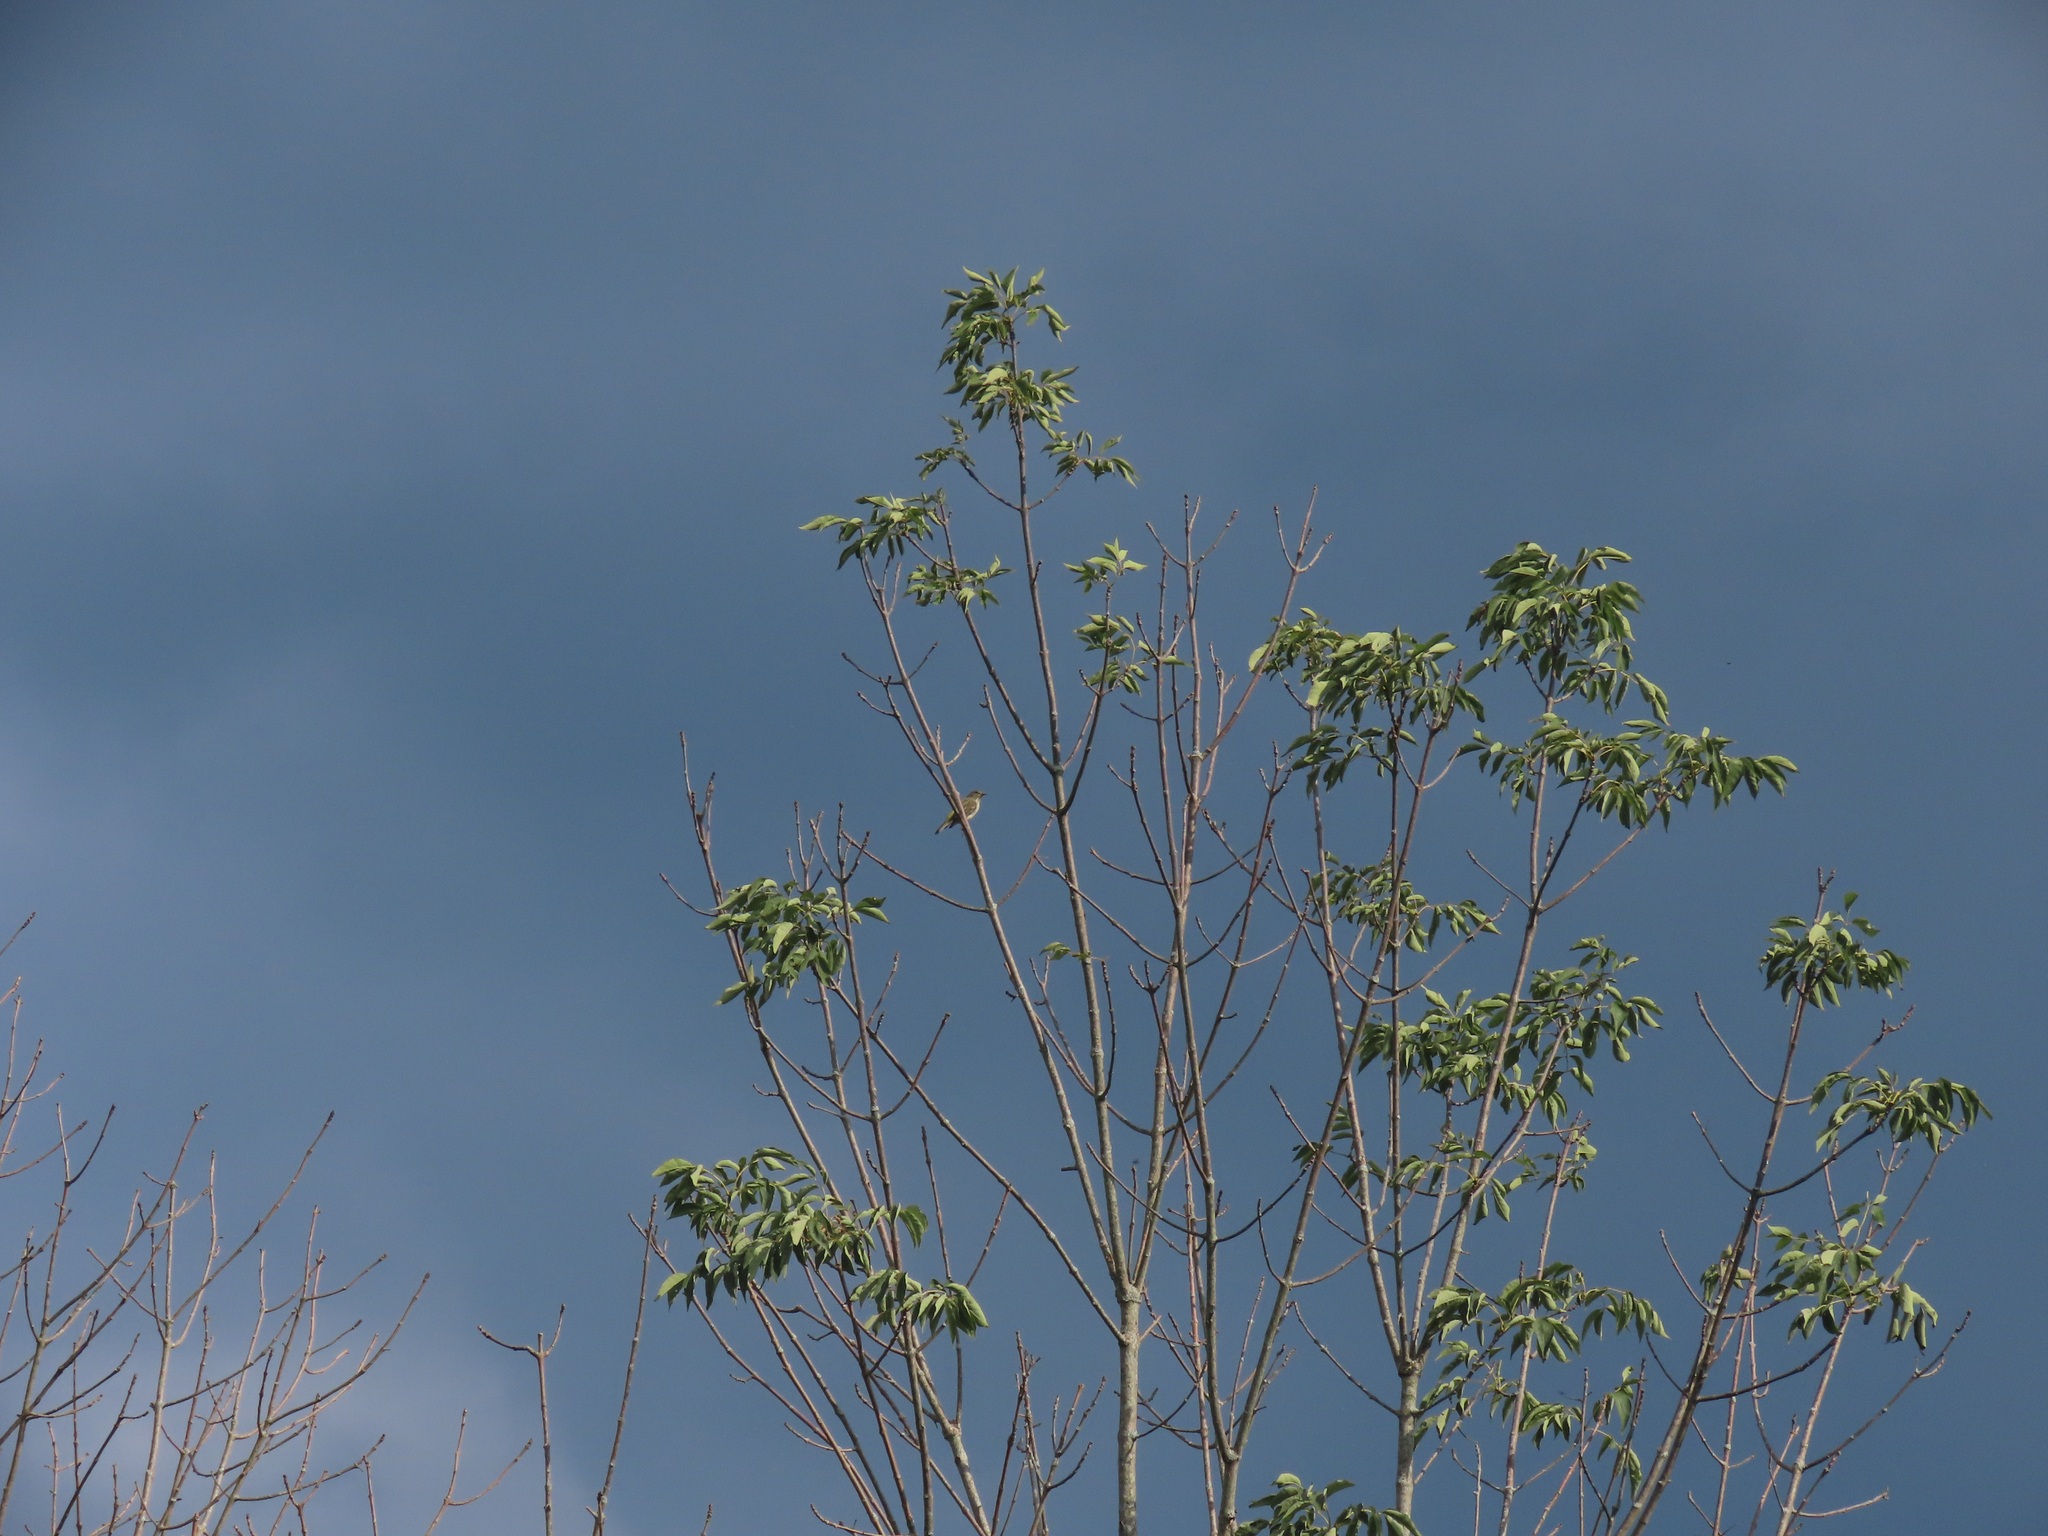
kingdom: Plantae
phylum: Tracheophyta
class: Magnoliopsida
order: Lamiales
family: Oleaceae
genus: Fraxinus
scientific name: Fraxinus americana
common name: White ash
